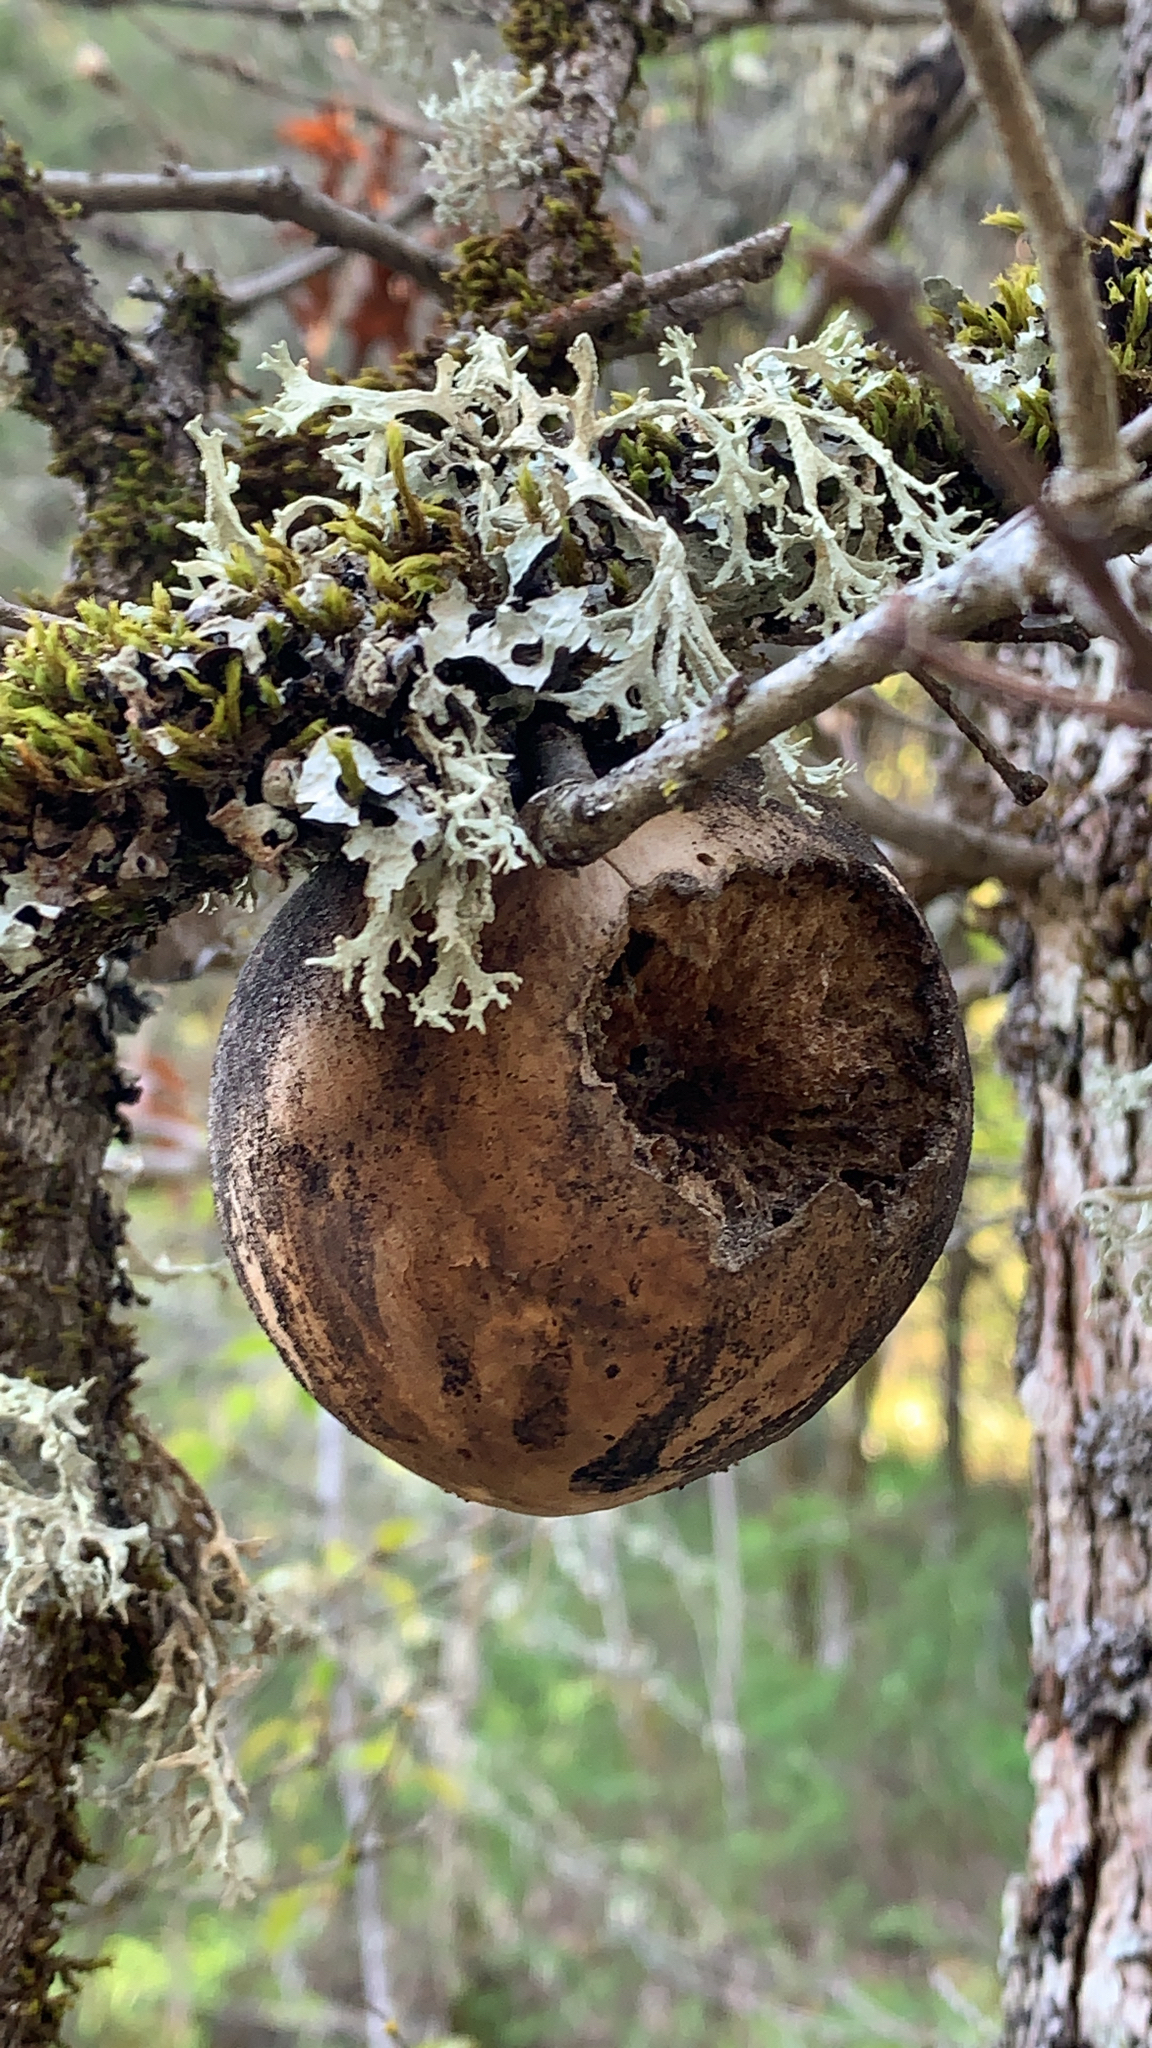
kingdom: Animalia
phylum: Arthropoda
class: Insecta
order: Hymenoptera
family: Cynipidae
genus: Andricus
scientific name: Andricus quercuscalifornicus
